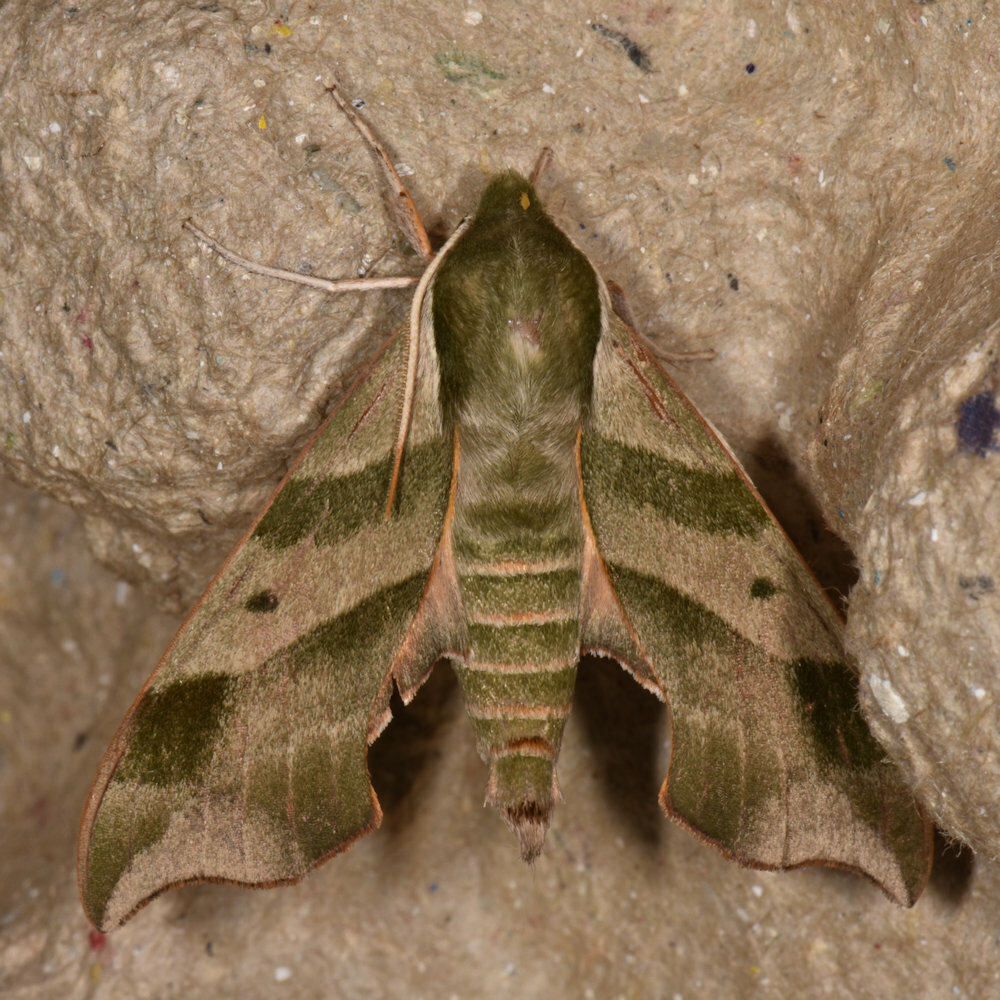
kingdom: Animalia
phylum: Arthropoda
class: Insecta
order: Lepidoptera
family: Sphingidae
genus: Darapsa
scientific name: Darapsa myron
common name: Hog sphinx
